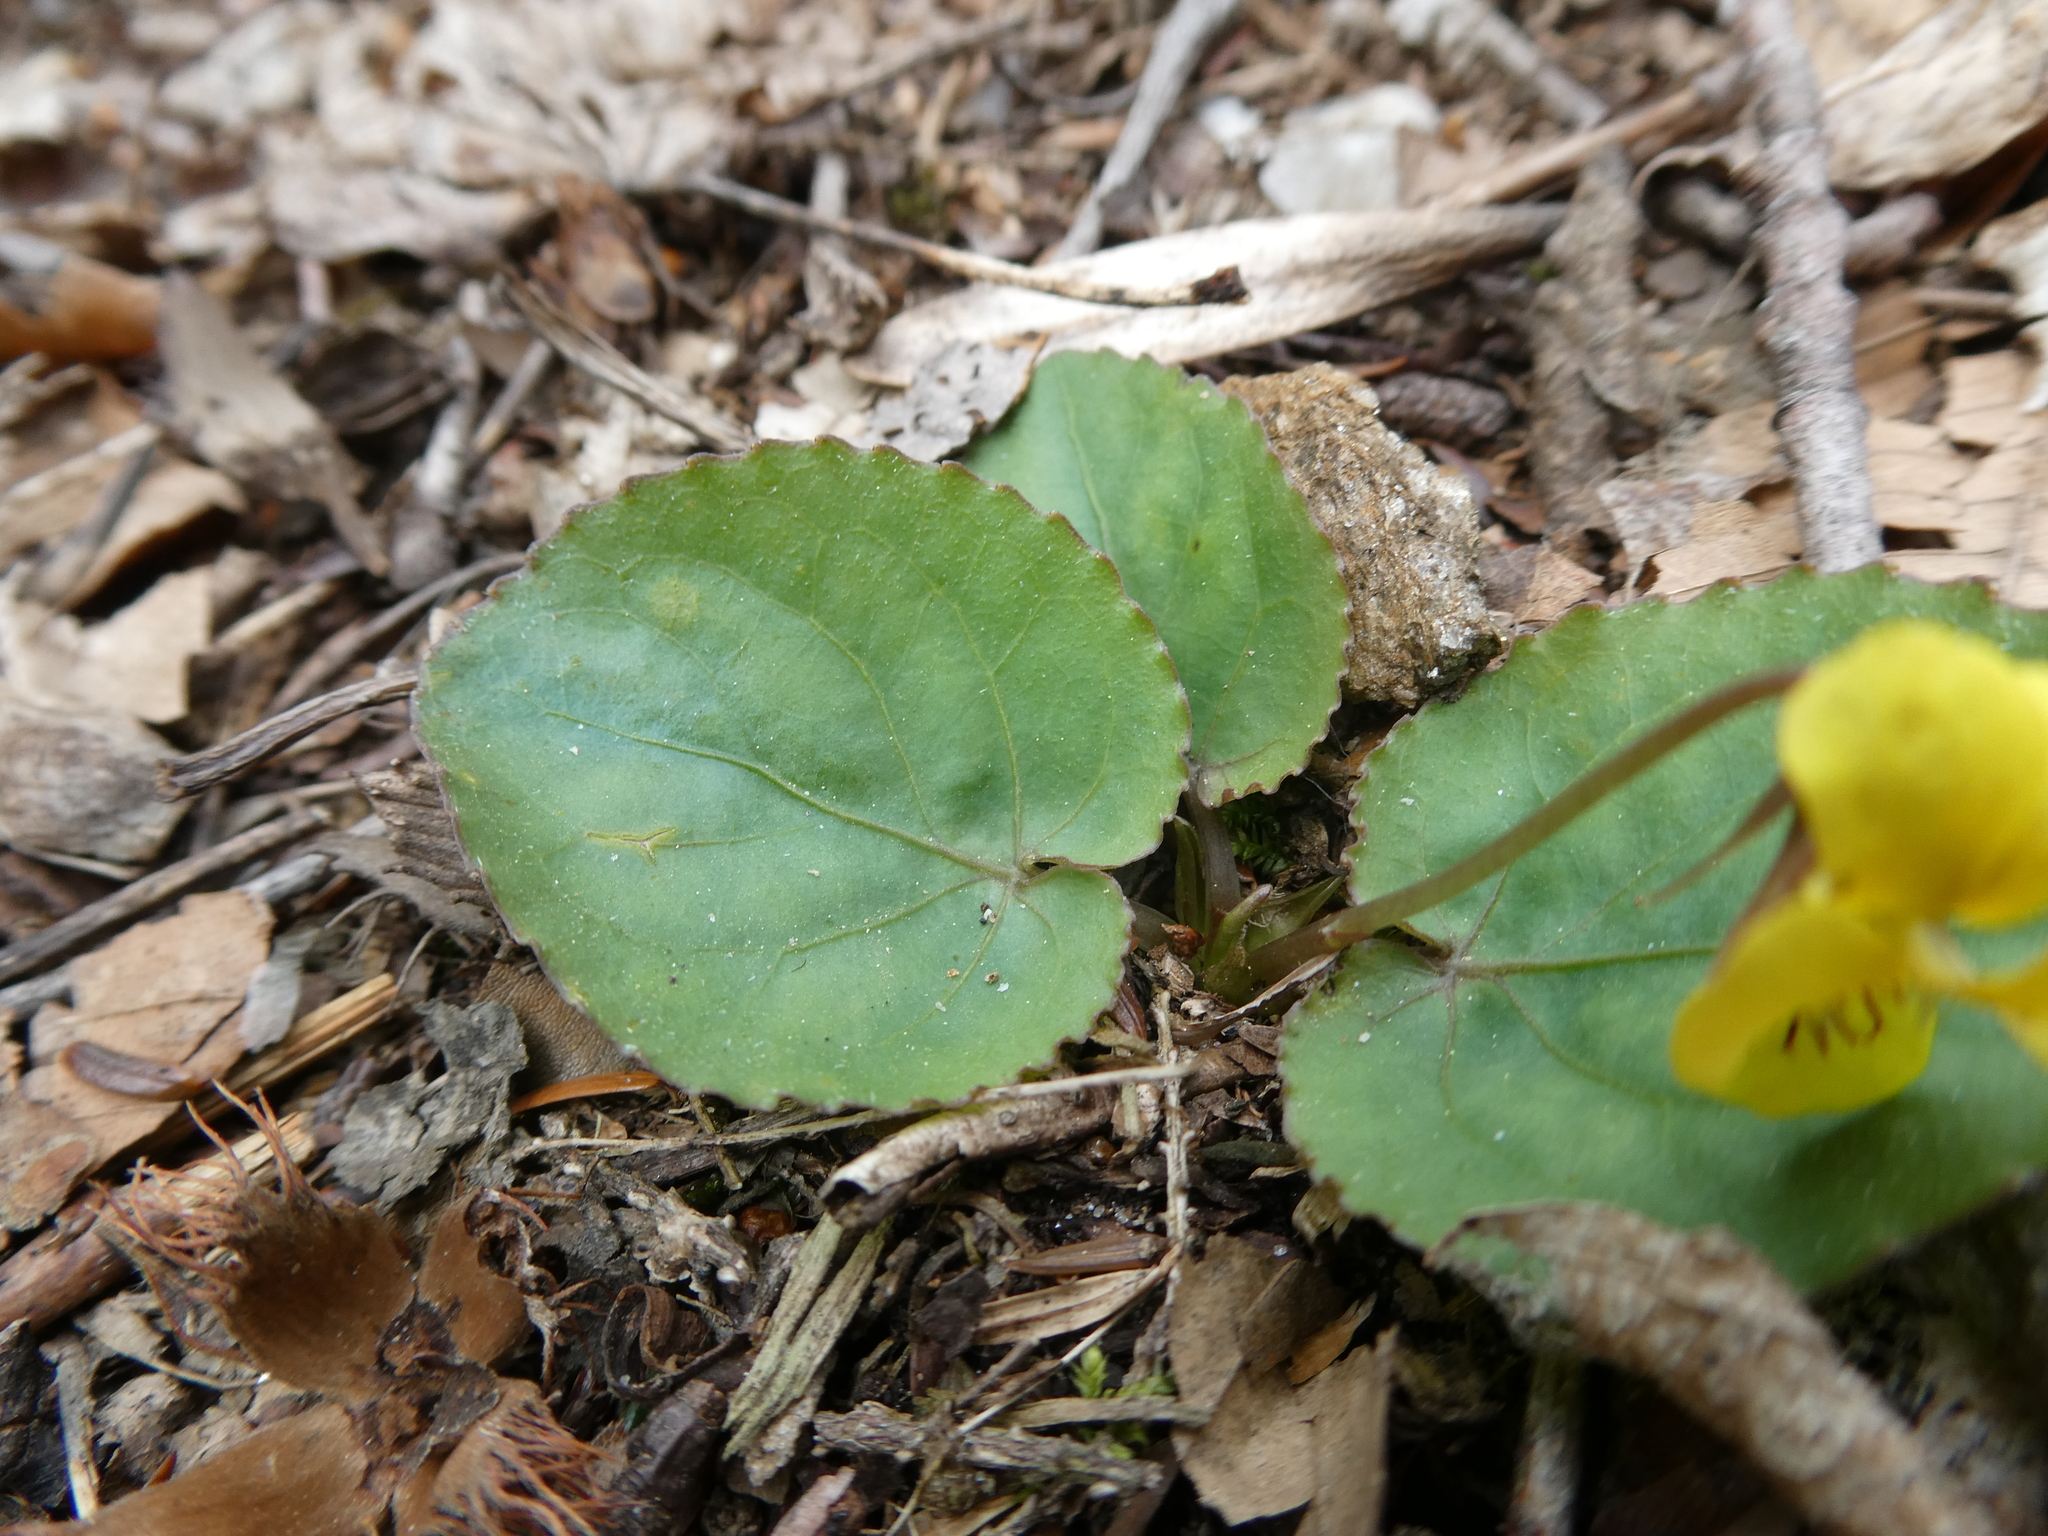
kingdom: Plantae
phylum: Tracheophyta
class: Magnoliopsida
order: Malpighiales
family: Violaceae
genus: Viola
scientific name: Viola rotundifolia
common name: Early yellow violet
